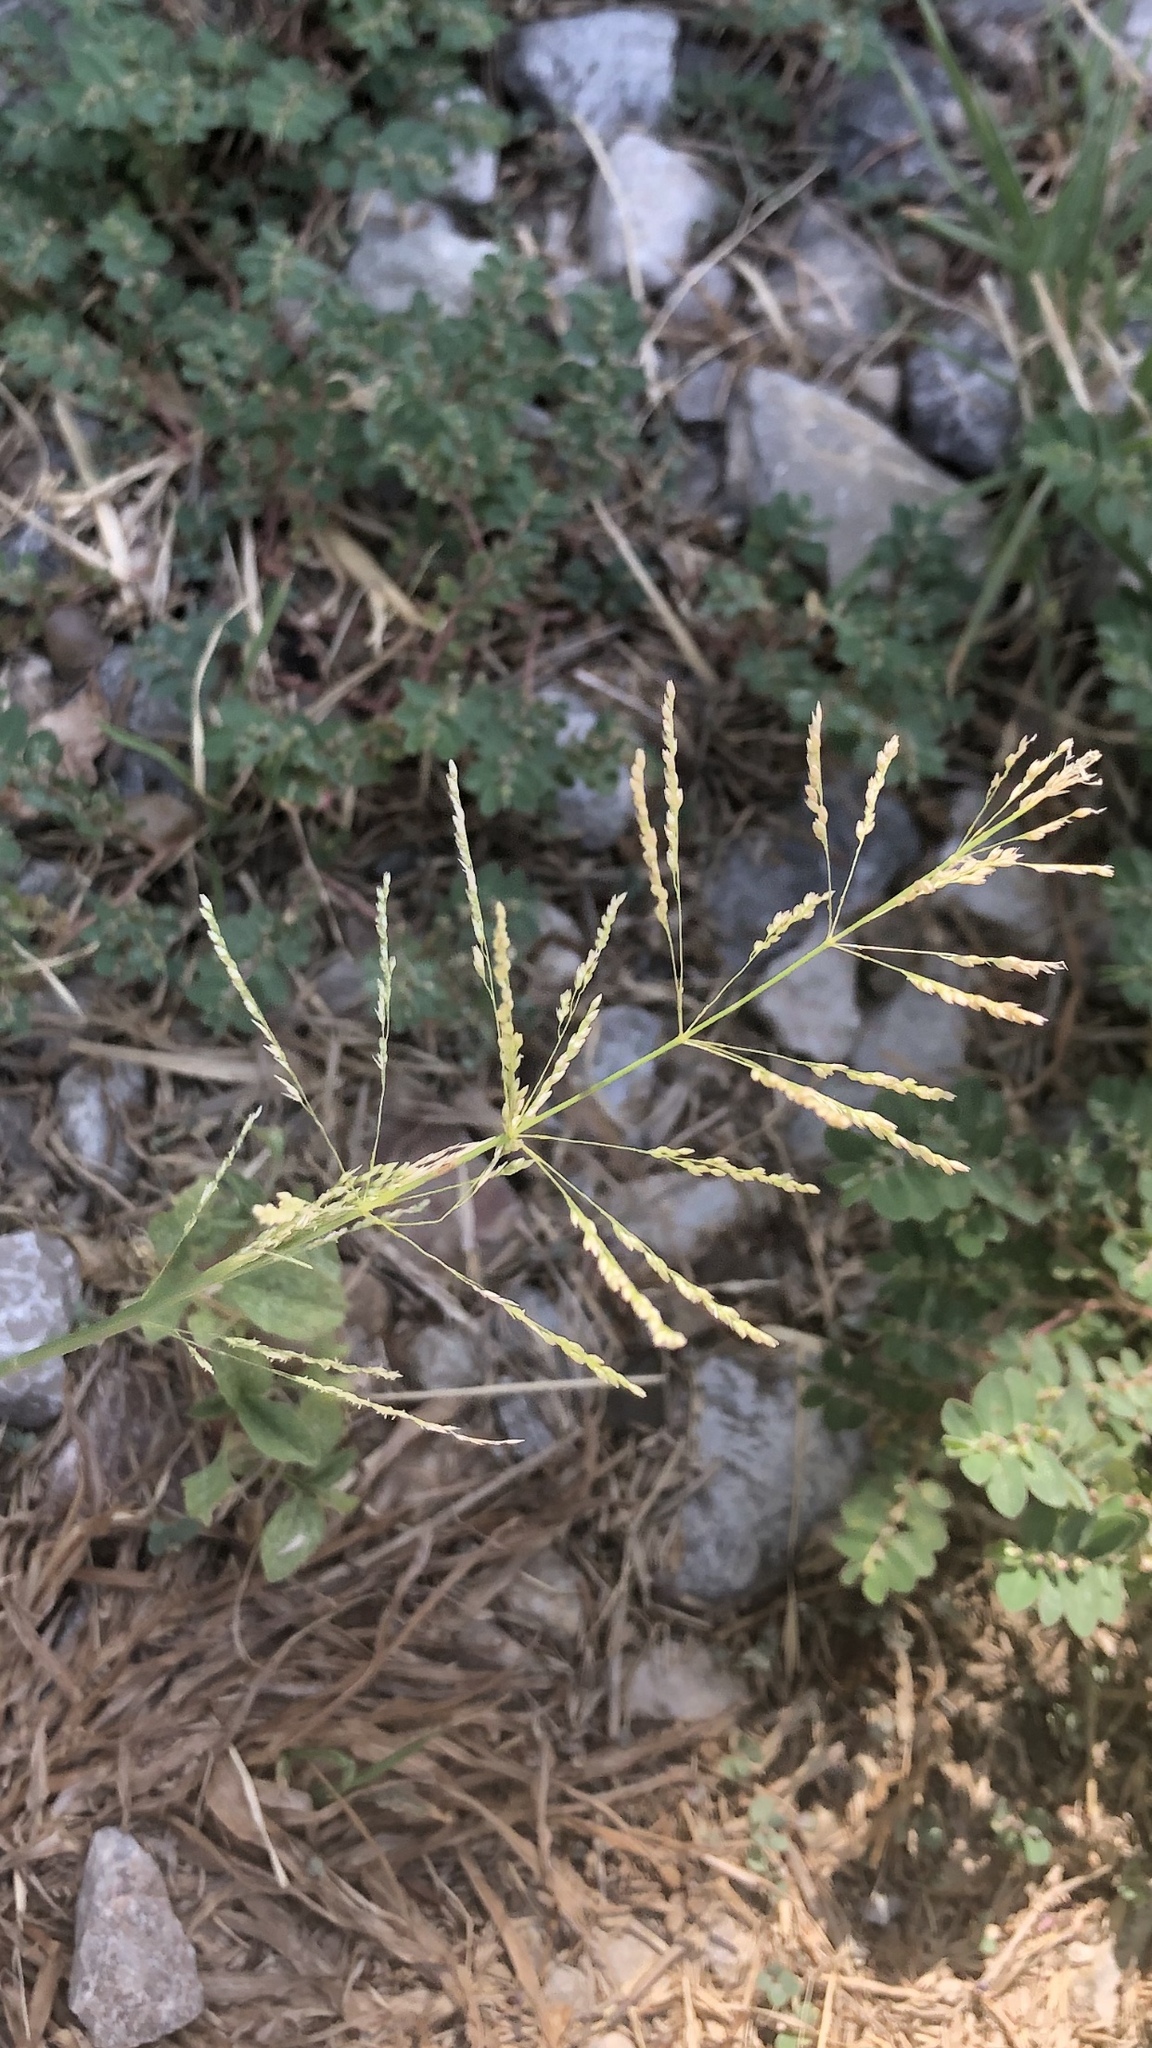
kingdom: Plantae
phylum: Tracheophyta
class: Liliopsida
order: Poales
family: Poaceae
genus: Sporobolus
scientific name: Sporobolus pyramidatus
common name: Whorled dropseed
